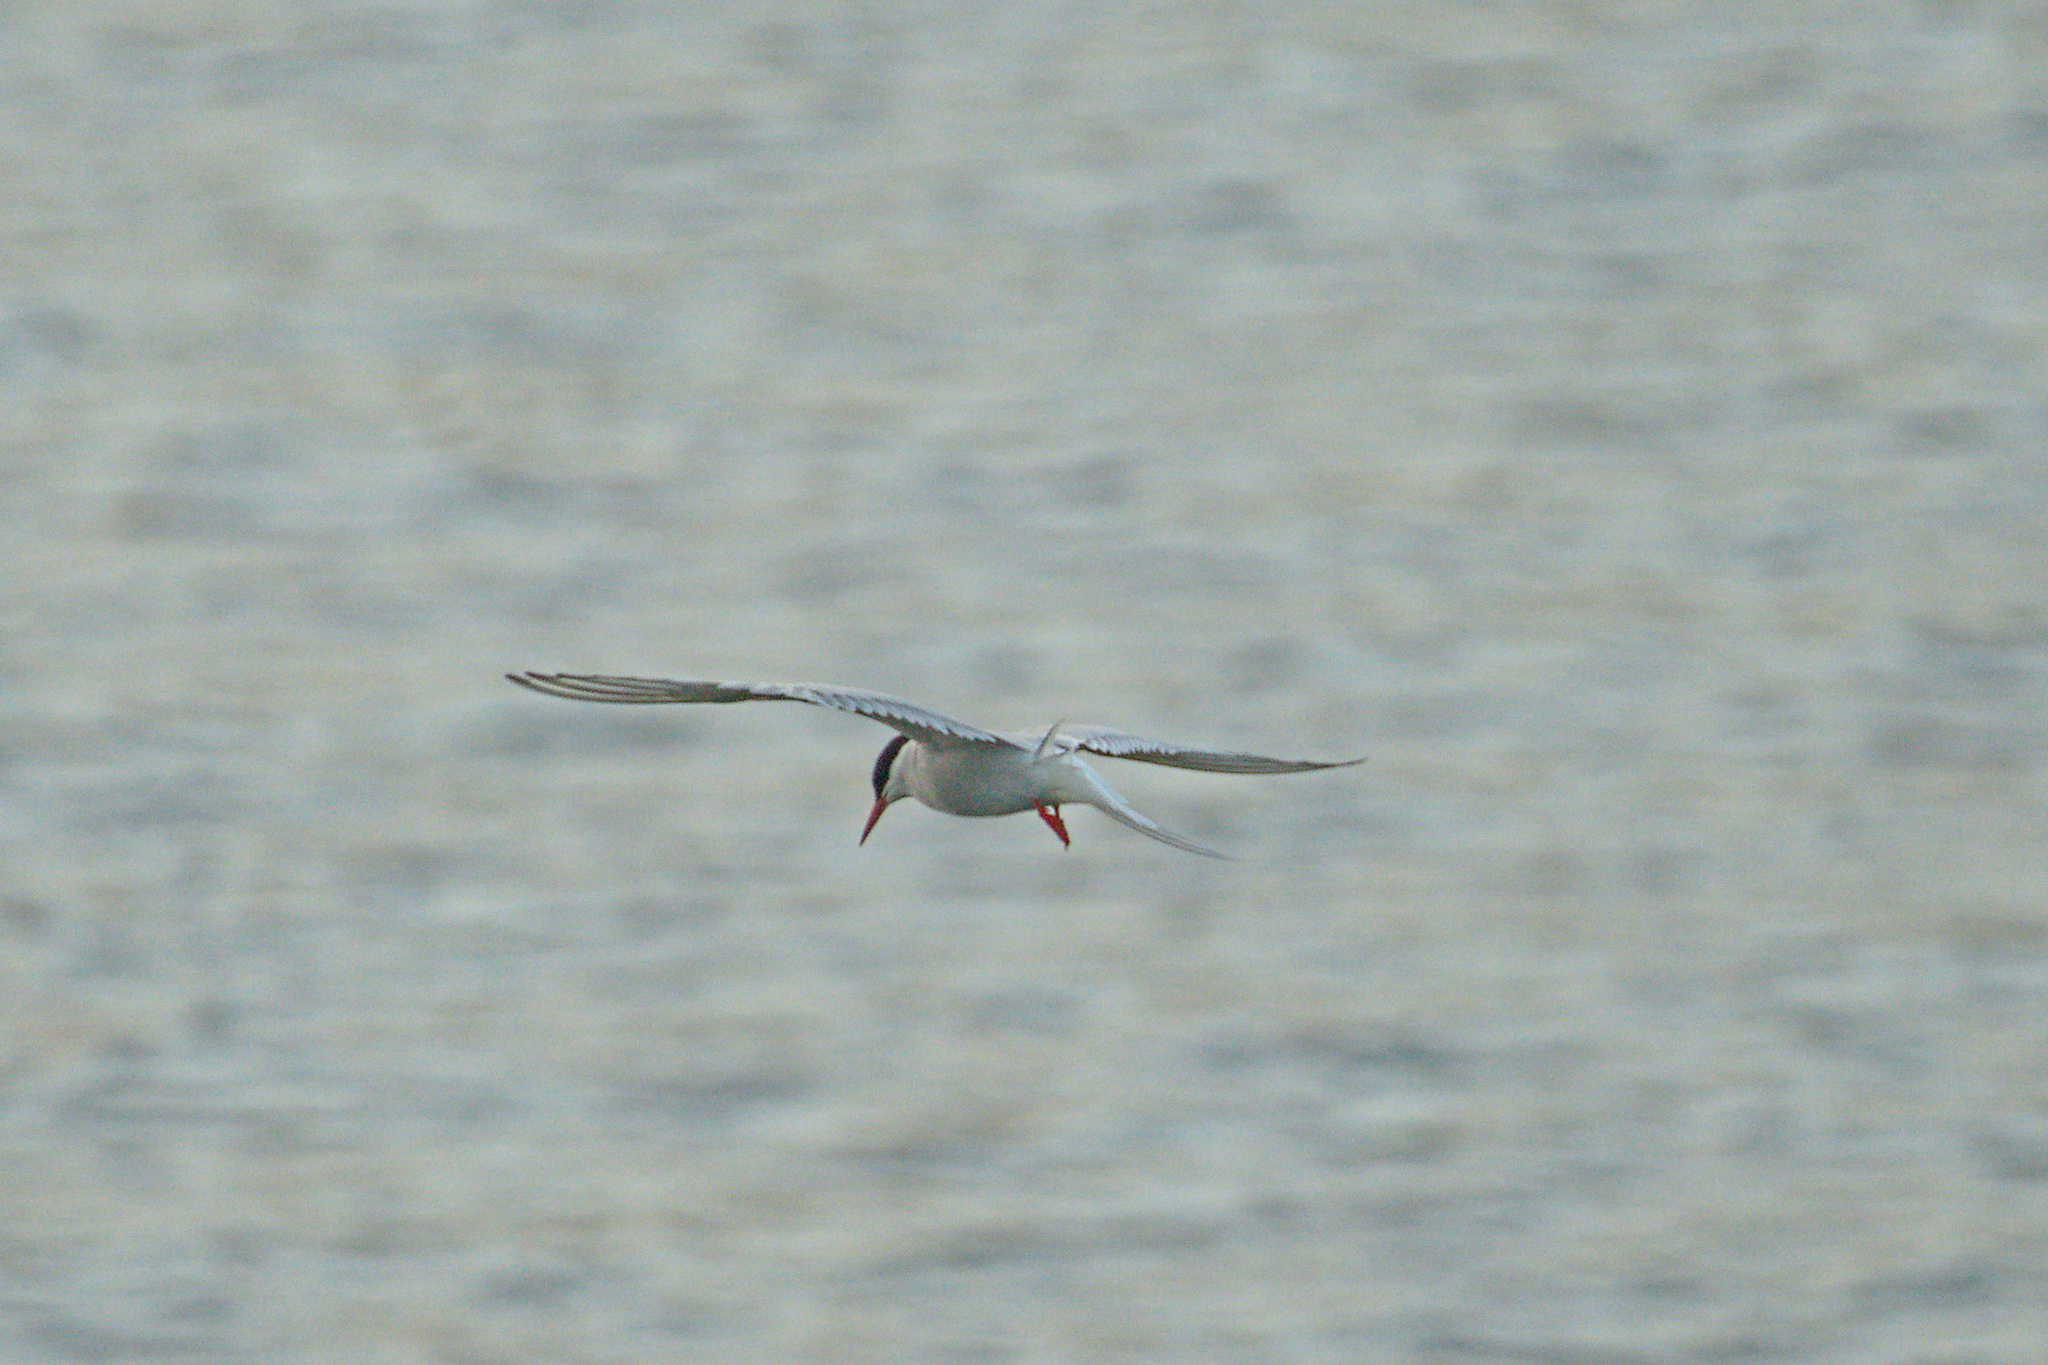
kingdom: Animalia
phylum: Chordata
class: Aves
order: Charadriiformes
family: Laridae
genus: Sterna
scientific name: Sterna paradisaea
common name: Arctic tern
